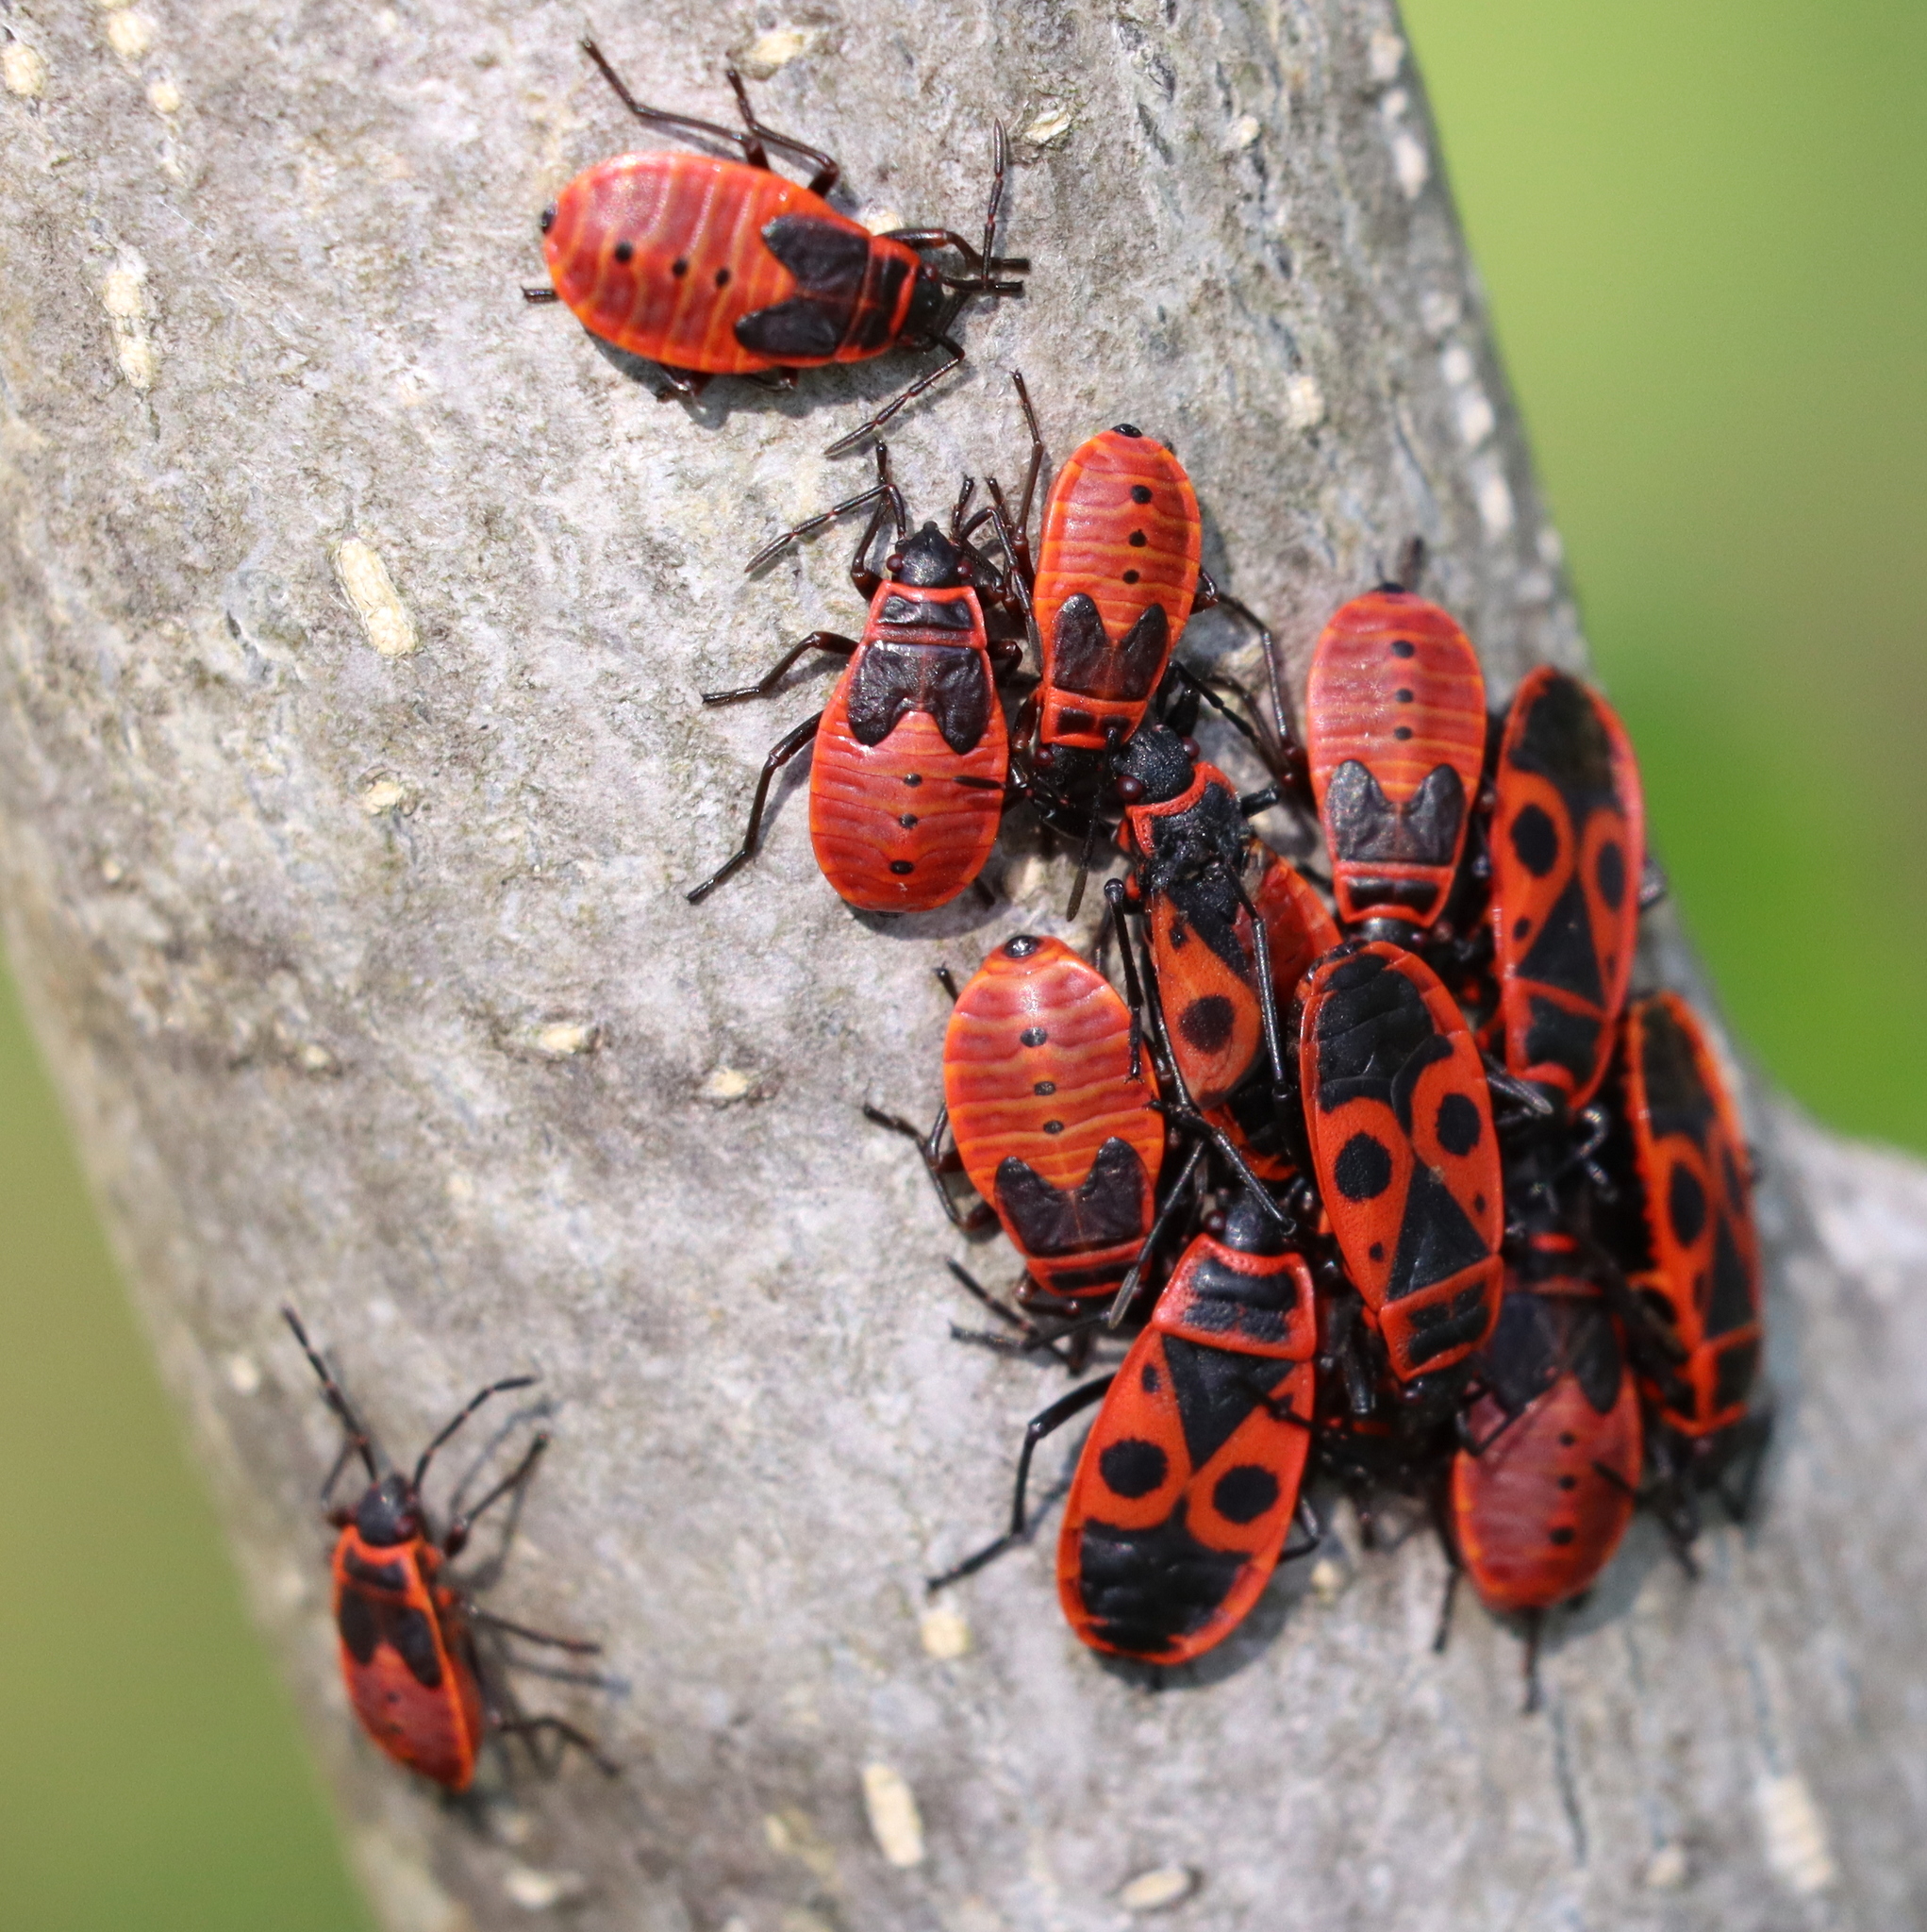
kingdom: Animalia
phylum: Arthropoda
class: Insecta
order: Hemiptera
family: Pyrrhocoridae
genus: Pyrrhocoris
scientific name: Pyrrhocoris apterus
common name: Firebug
